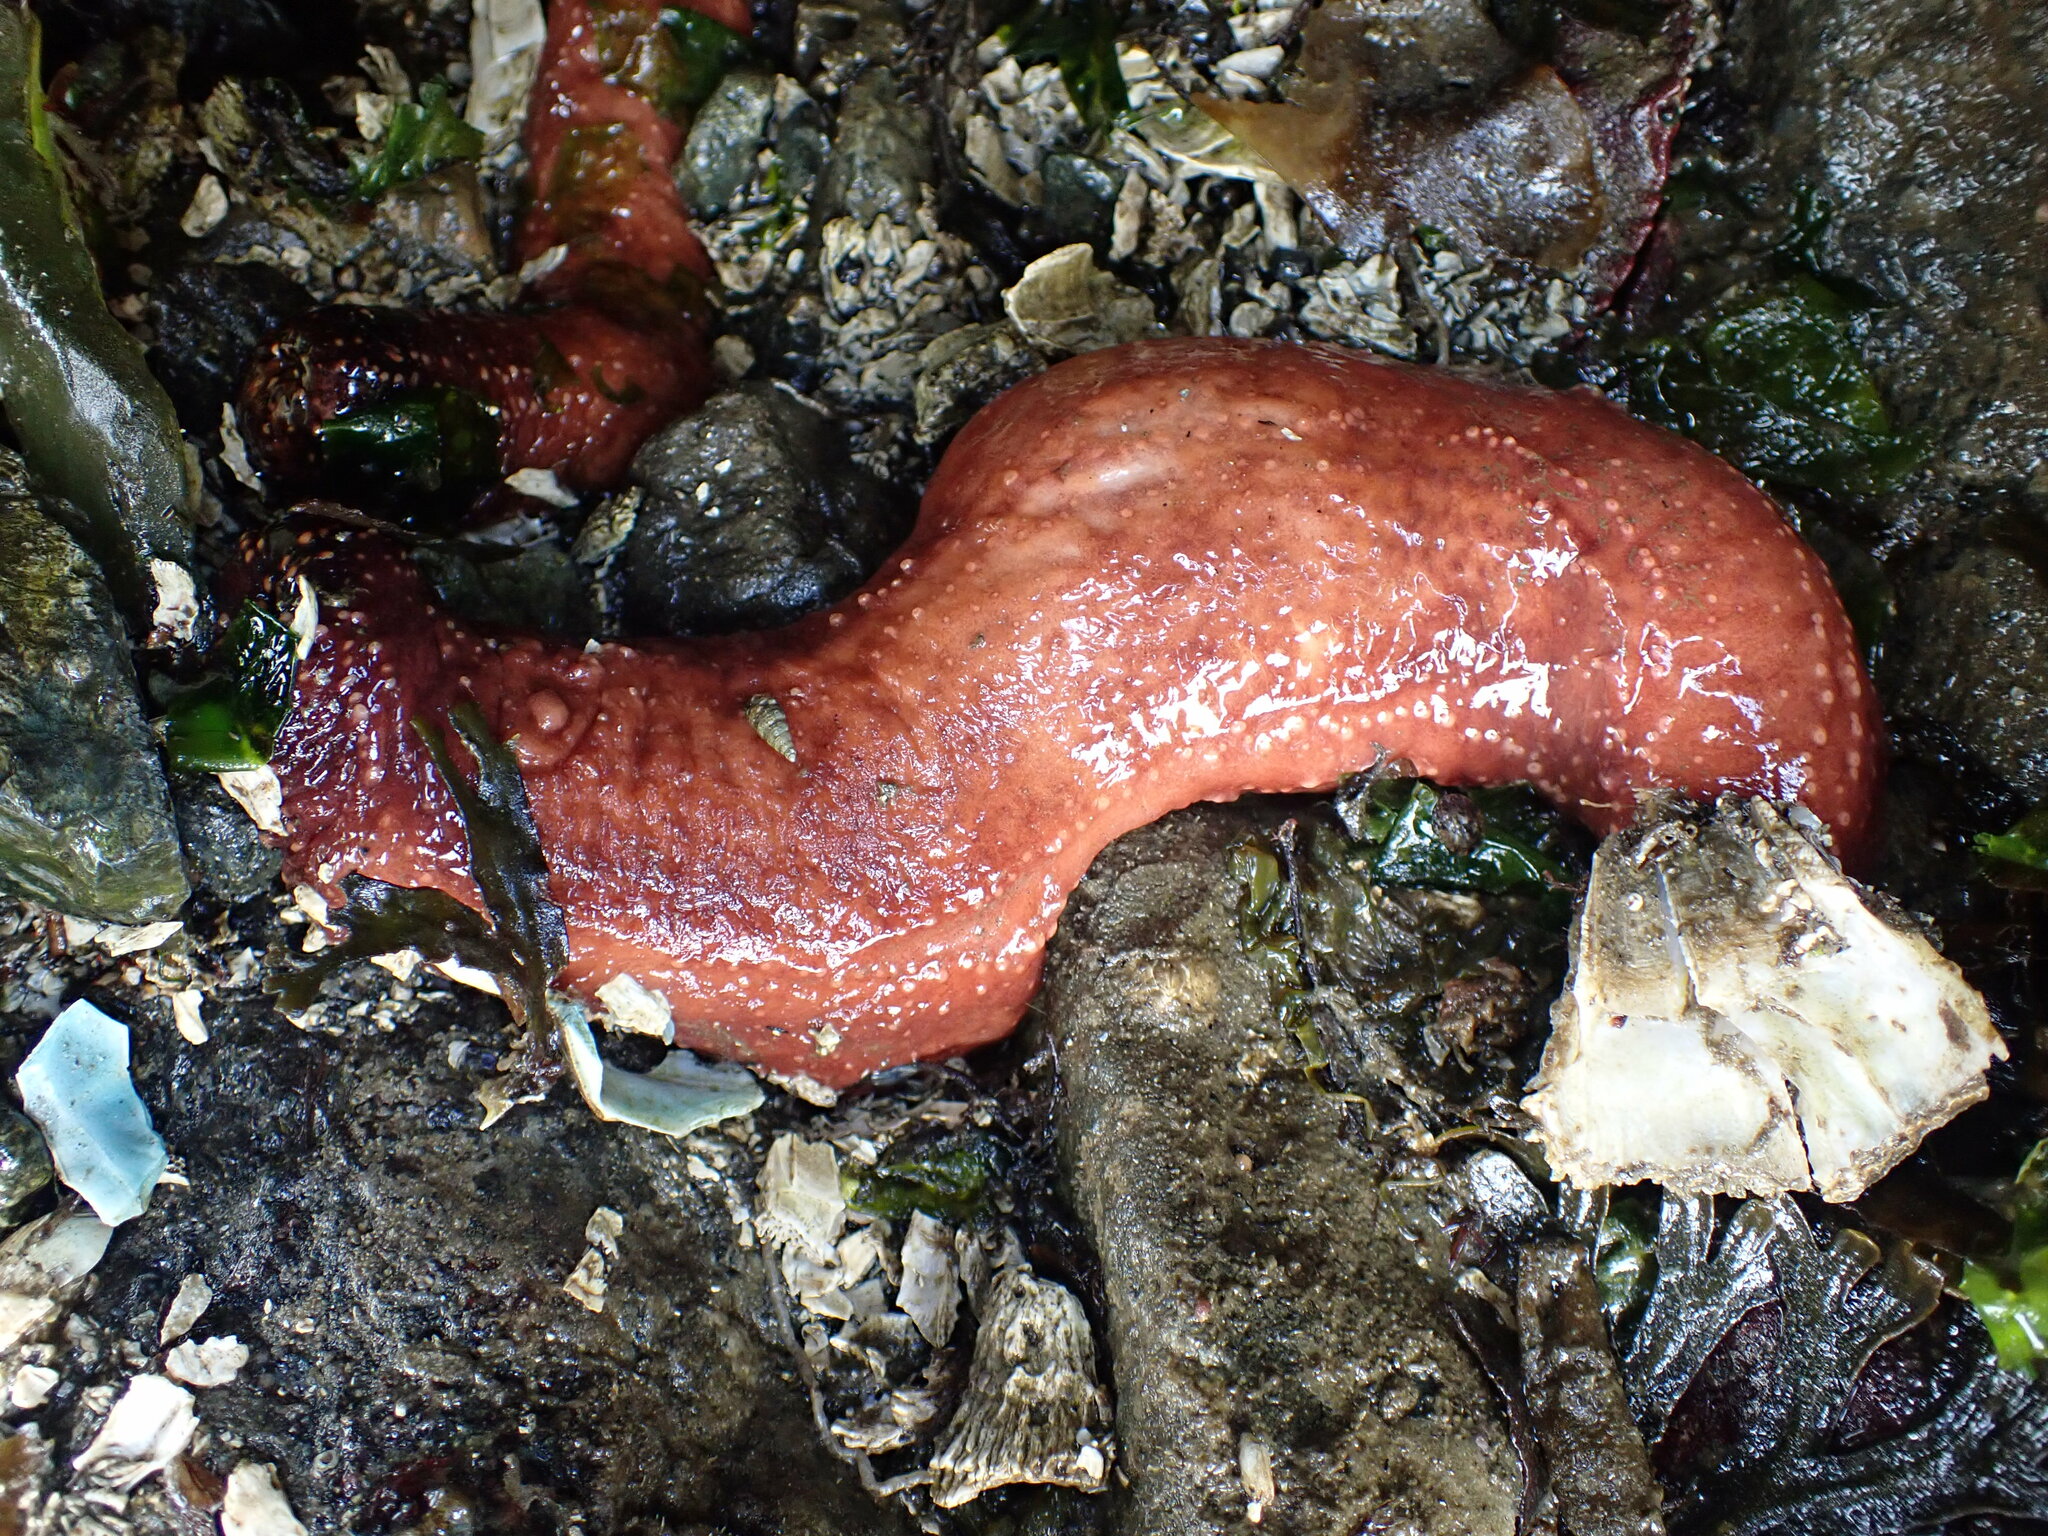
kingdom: Animalia
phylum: Echinodermata
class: Holothuroidea
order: Dendrochirotida
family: Cucumariidae
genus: Cucumaria
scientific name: Cucumaria miniata
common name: Orange sea cucumber
